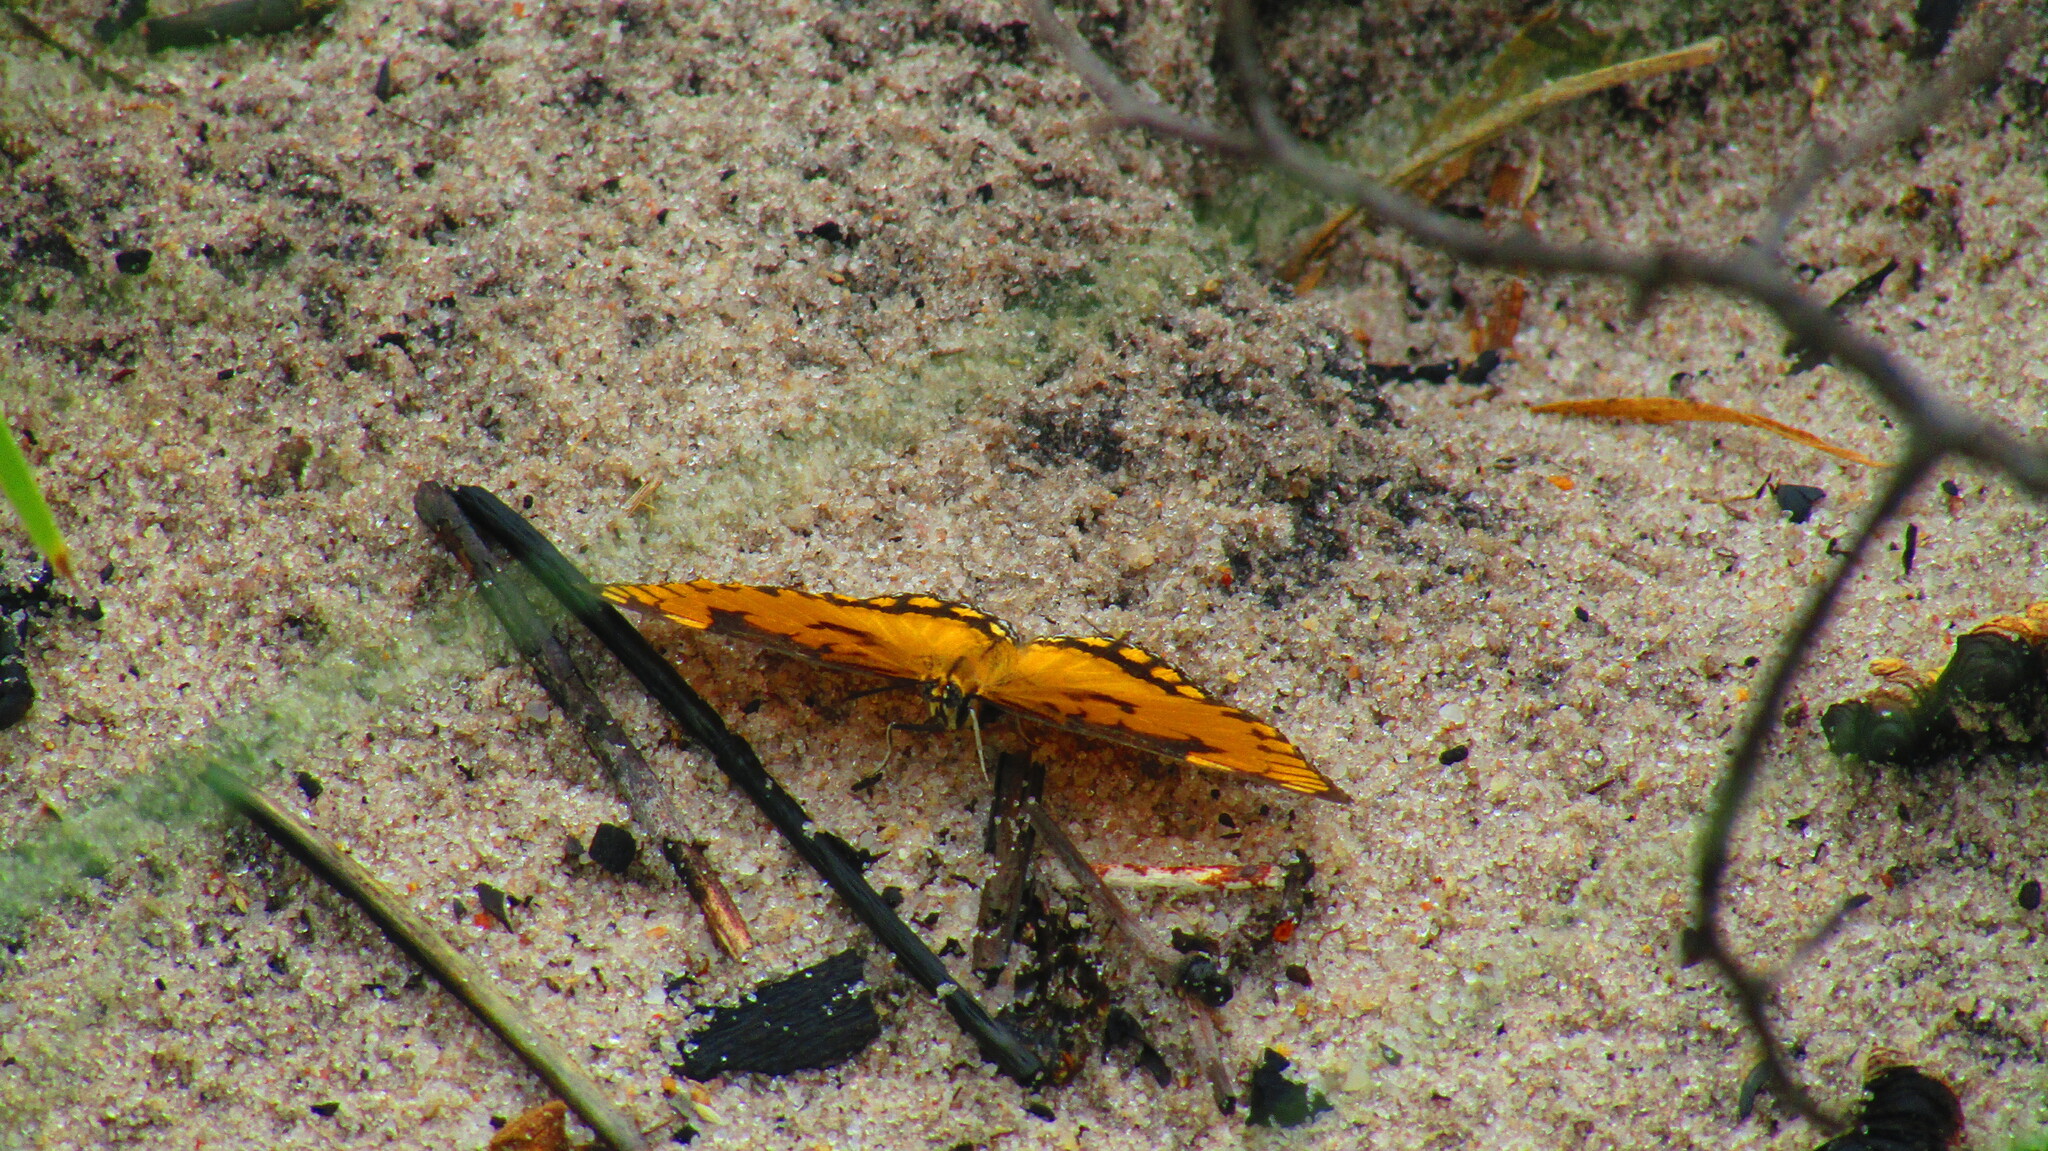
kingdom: Animalia
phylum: Arthropoda
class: Insecta
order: Lepidoptera
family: Nymphalidae
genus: Byblia
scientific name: Byblia anvatara
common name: African joker
